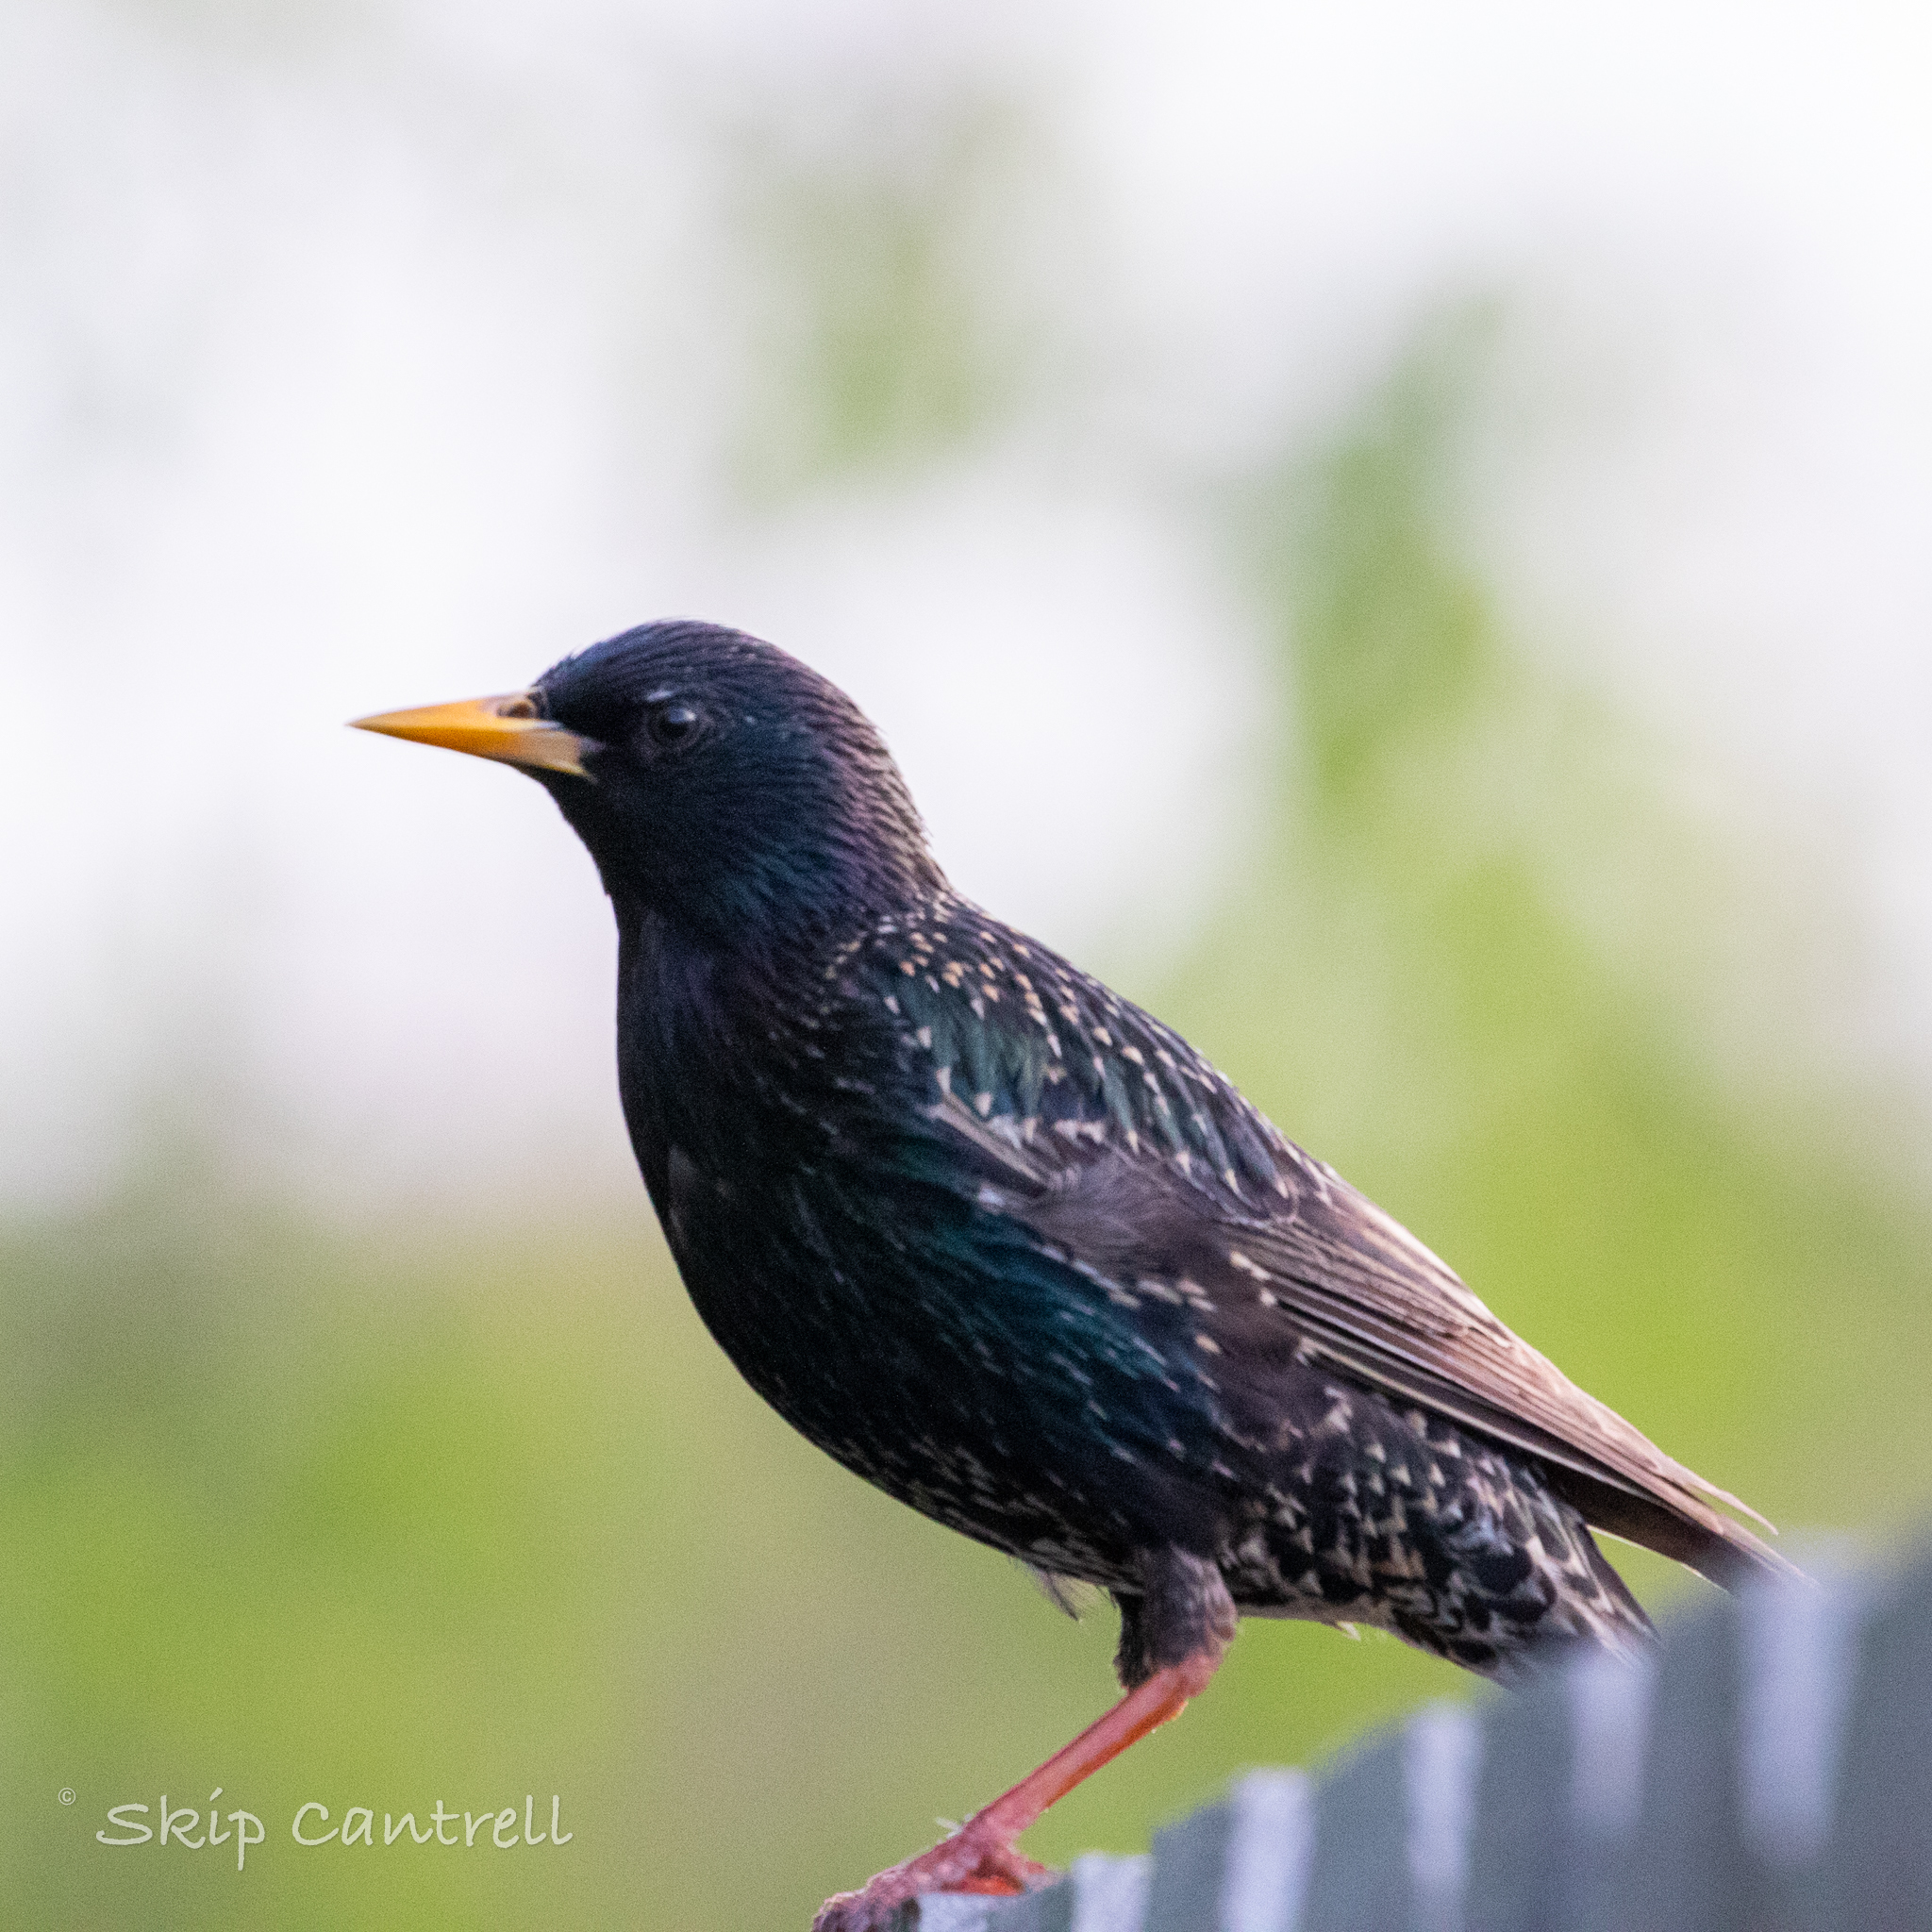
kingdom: Animalia
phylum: Chordata
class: Aves
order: Passeriformes
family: Sturnidae
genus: Sturnus
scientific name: Sturnus vulgaris
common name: Common starling
